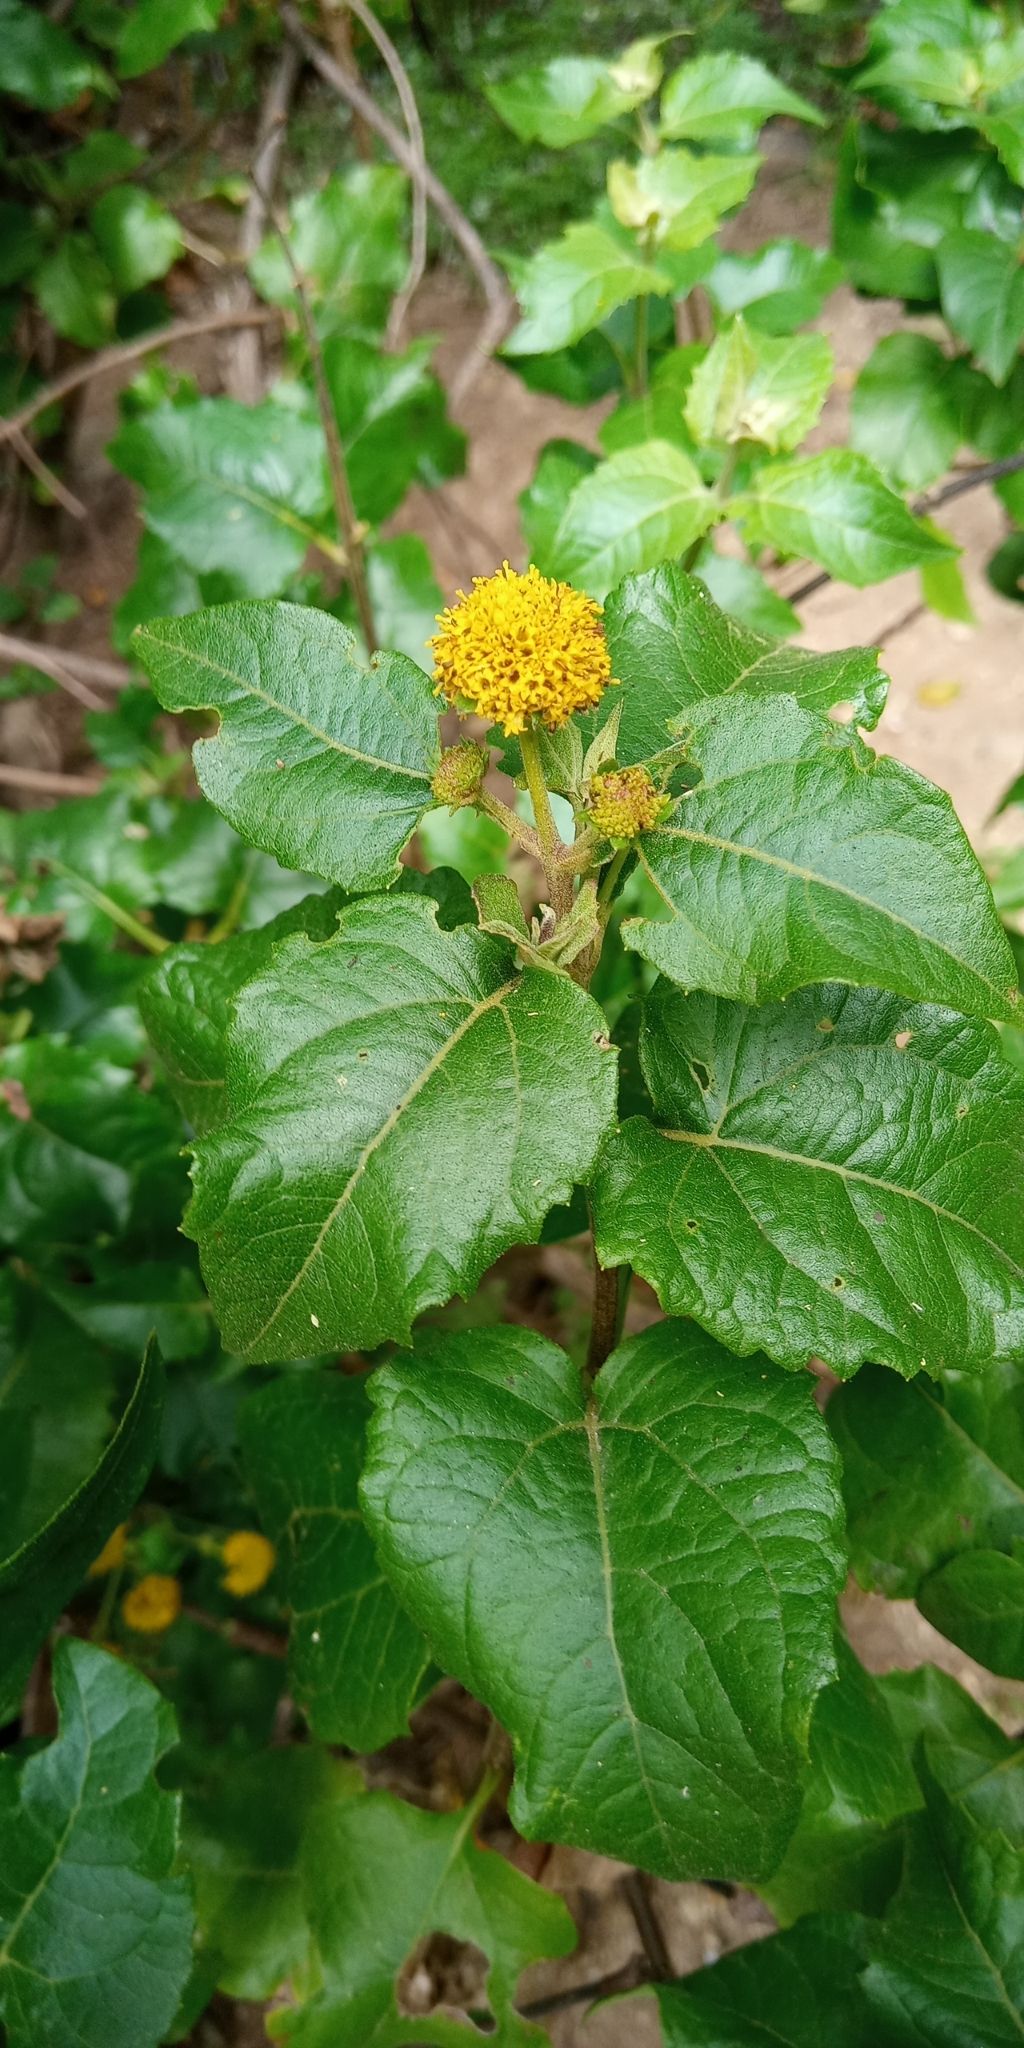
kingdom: Plantae
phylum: Tracheophyta
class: Magnoliopsida
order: Asterales
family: Asteraceae
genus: Podanthus
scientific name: Podanthus ovatifolius
